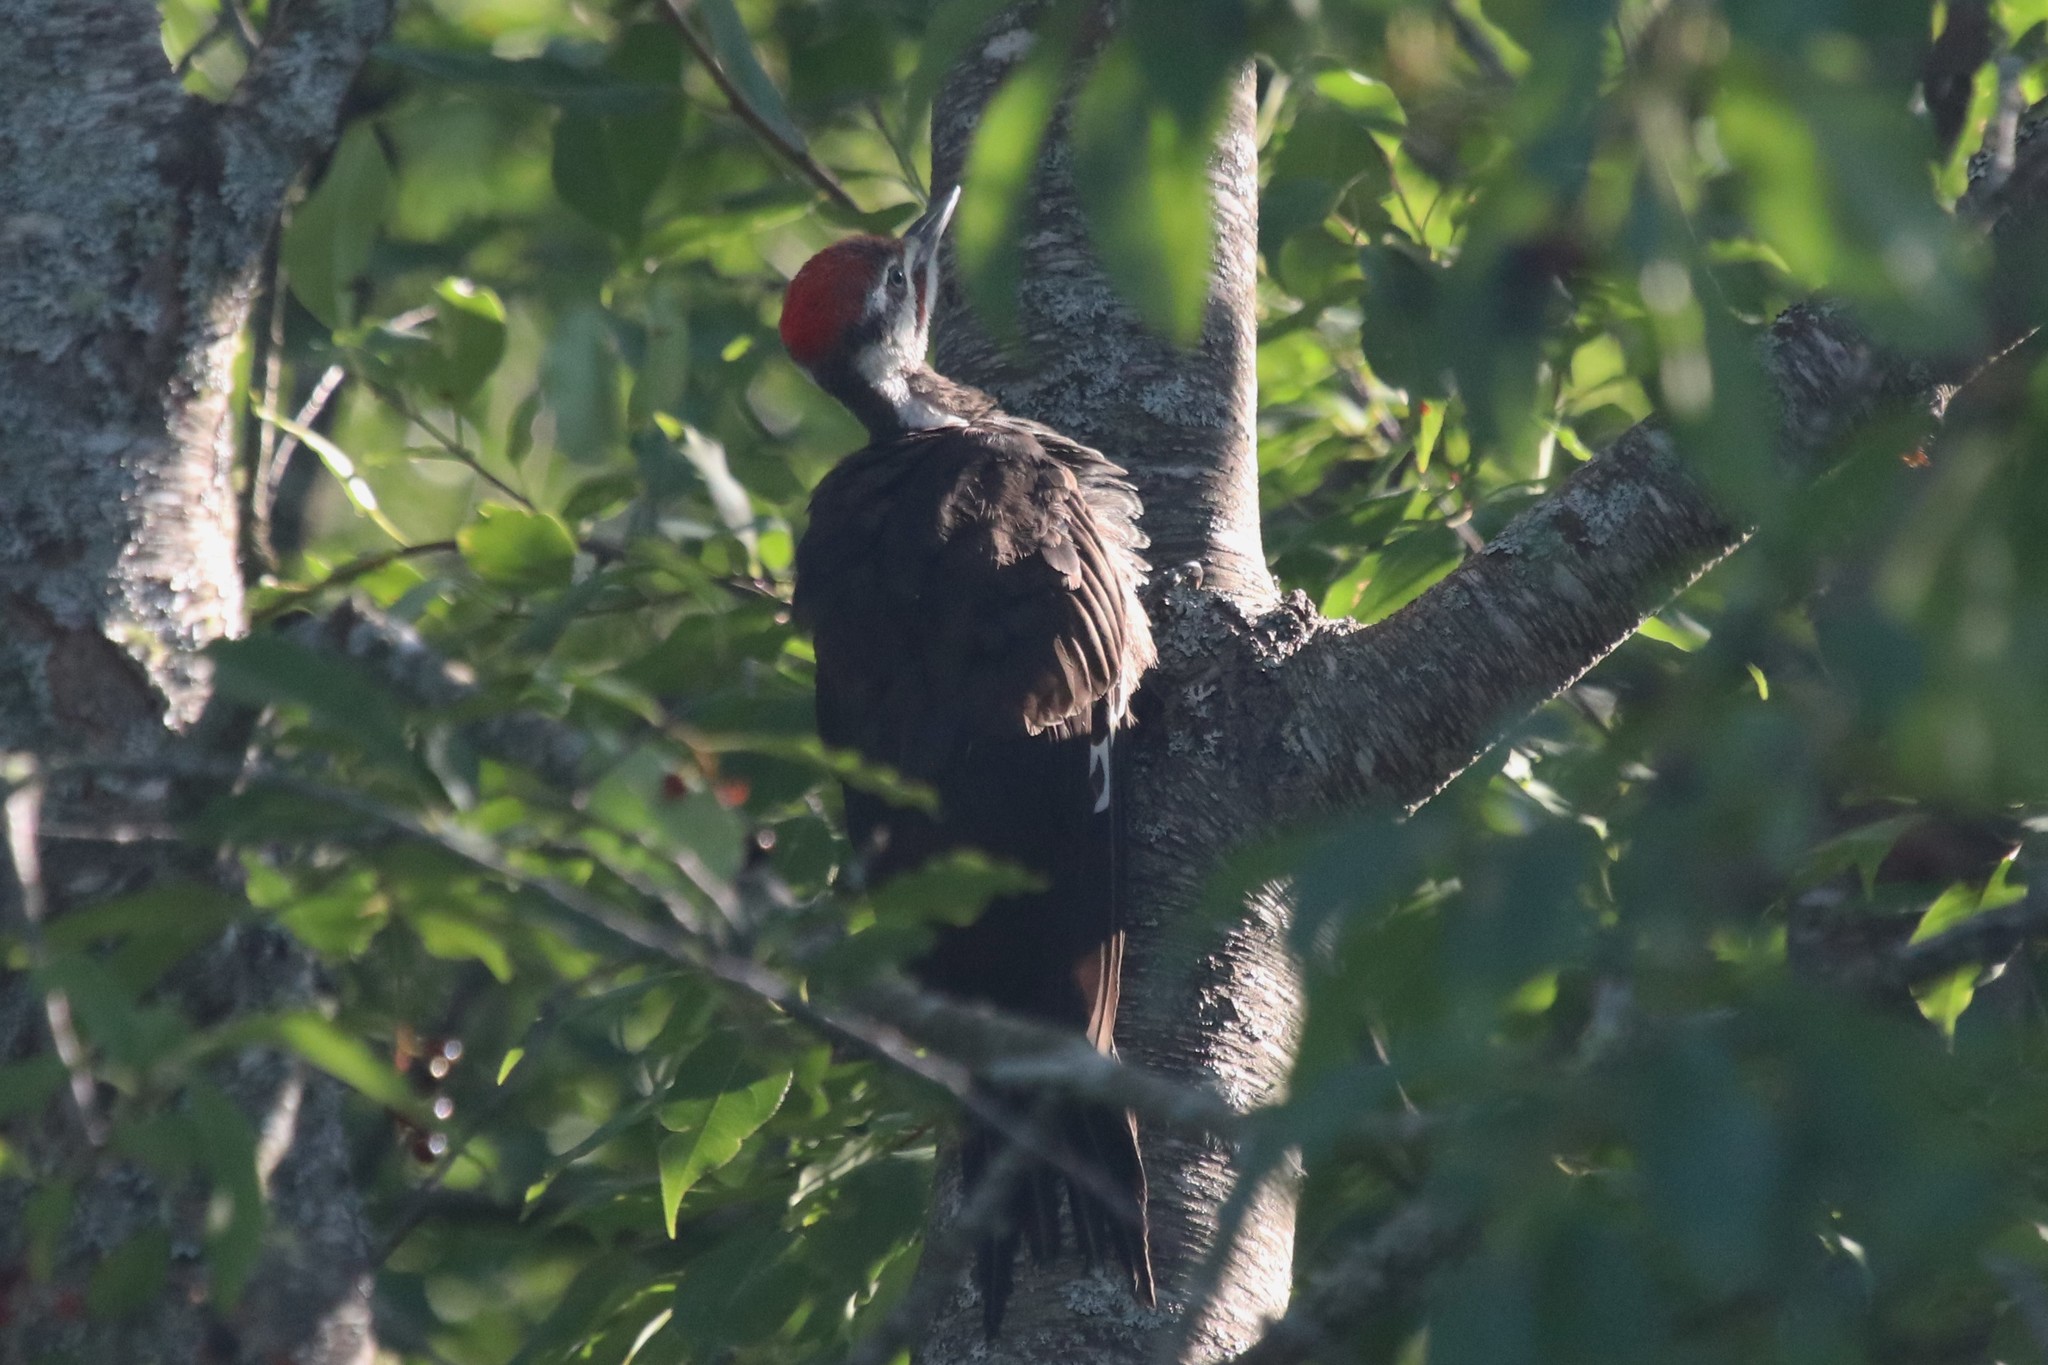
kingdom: Animalia
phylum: Chordata
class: Aves
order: Piciformes
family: Picidae
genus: Dryocopus
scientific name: Dryocopus pileatus
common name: Pileated woodpecker
